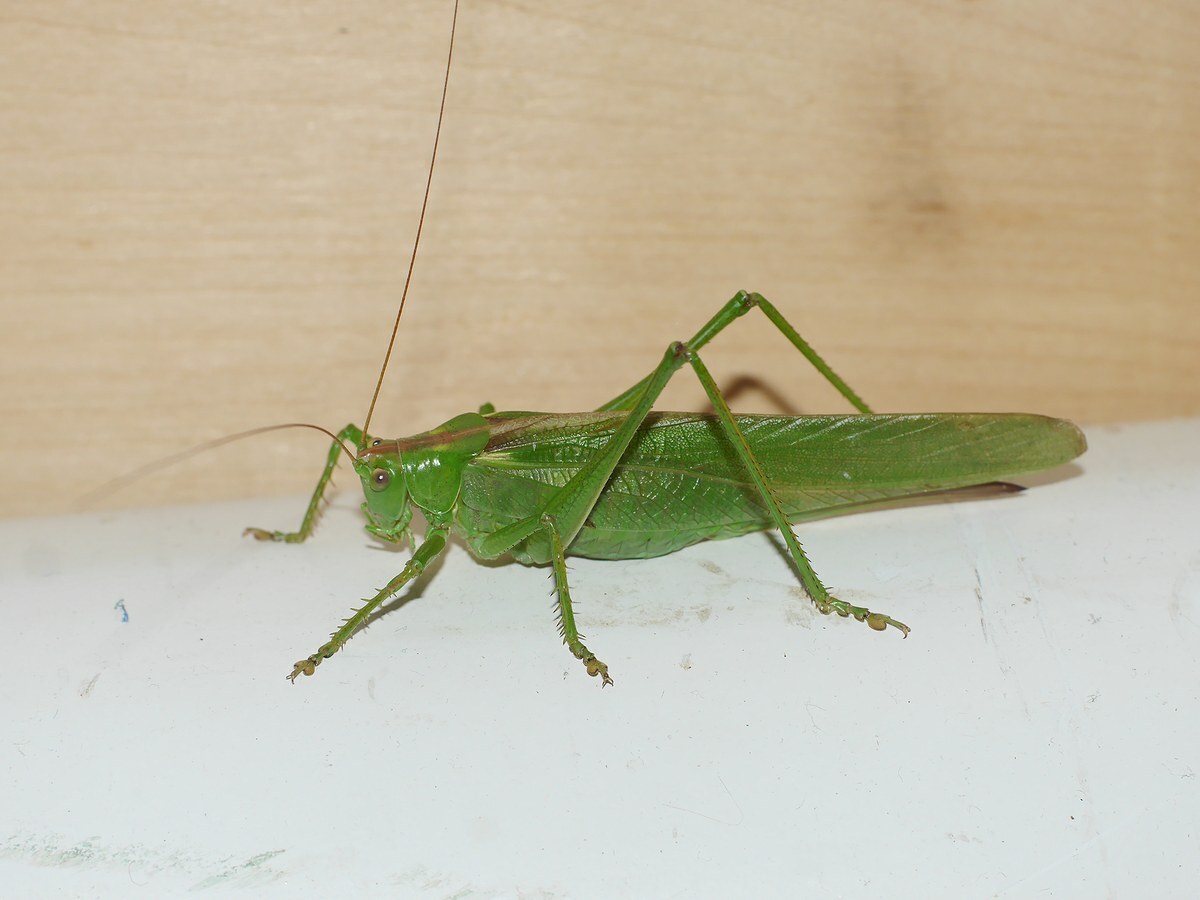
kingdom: Animalia
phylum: Arthropoda
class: Insecta
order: Orthoptera
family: Tettigoniidae
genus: Tettigonia
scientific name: Tettigonia viridissima
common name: Great green bush-cricket
